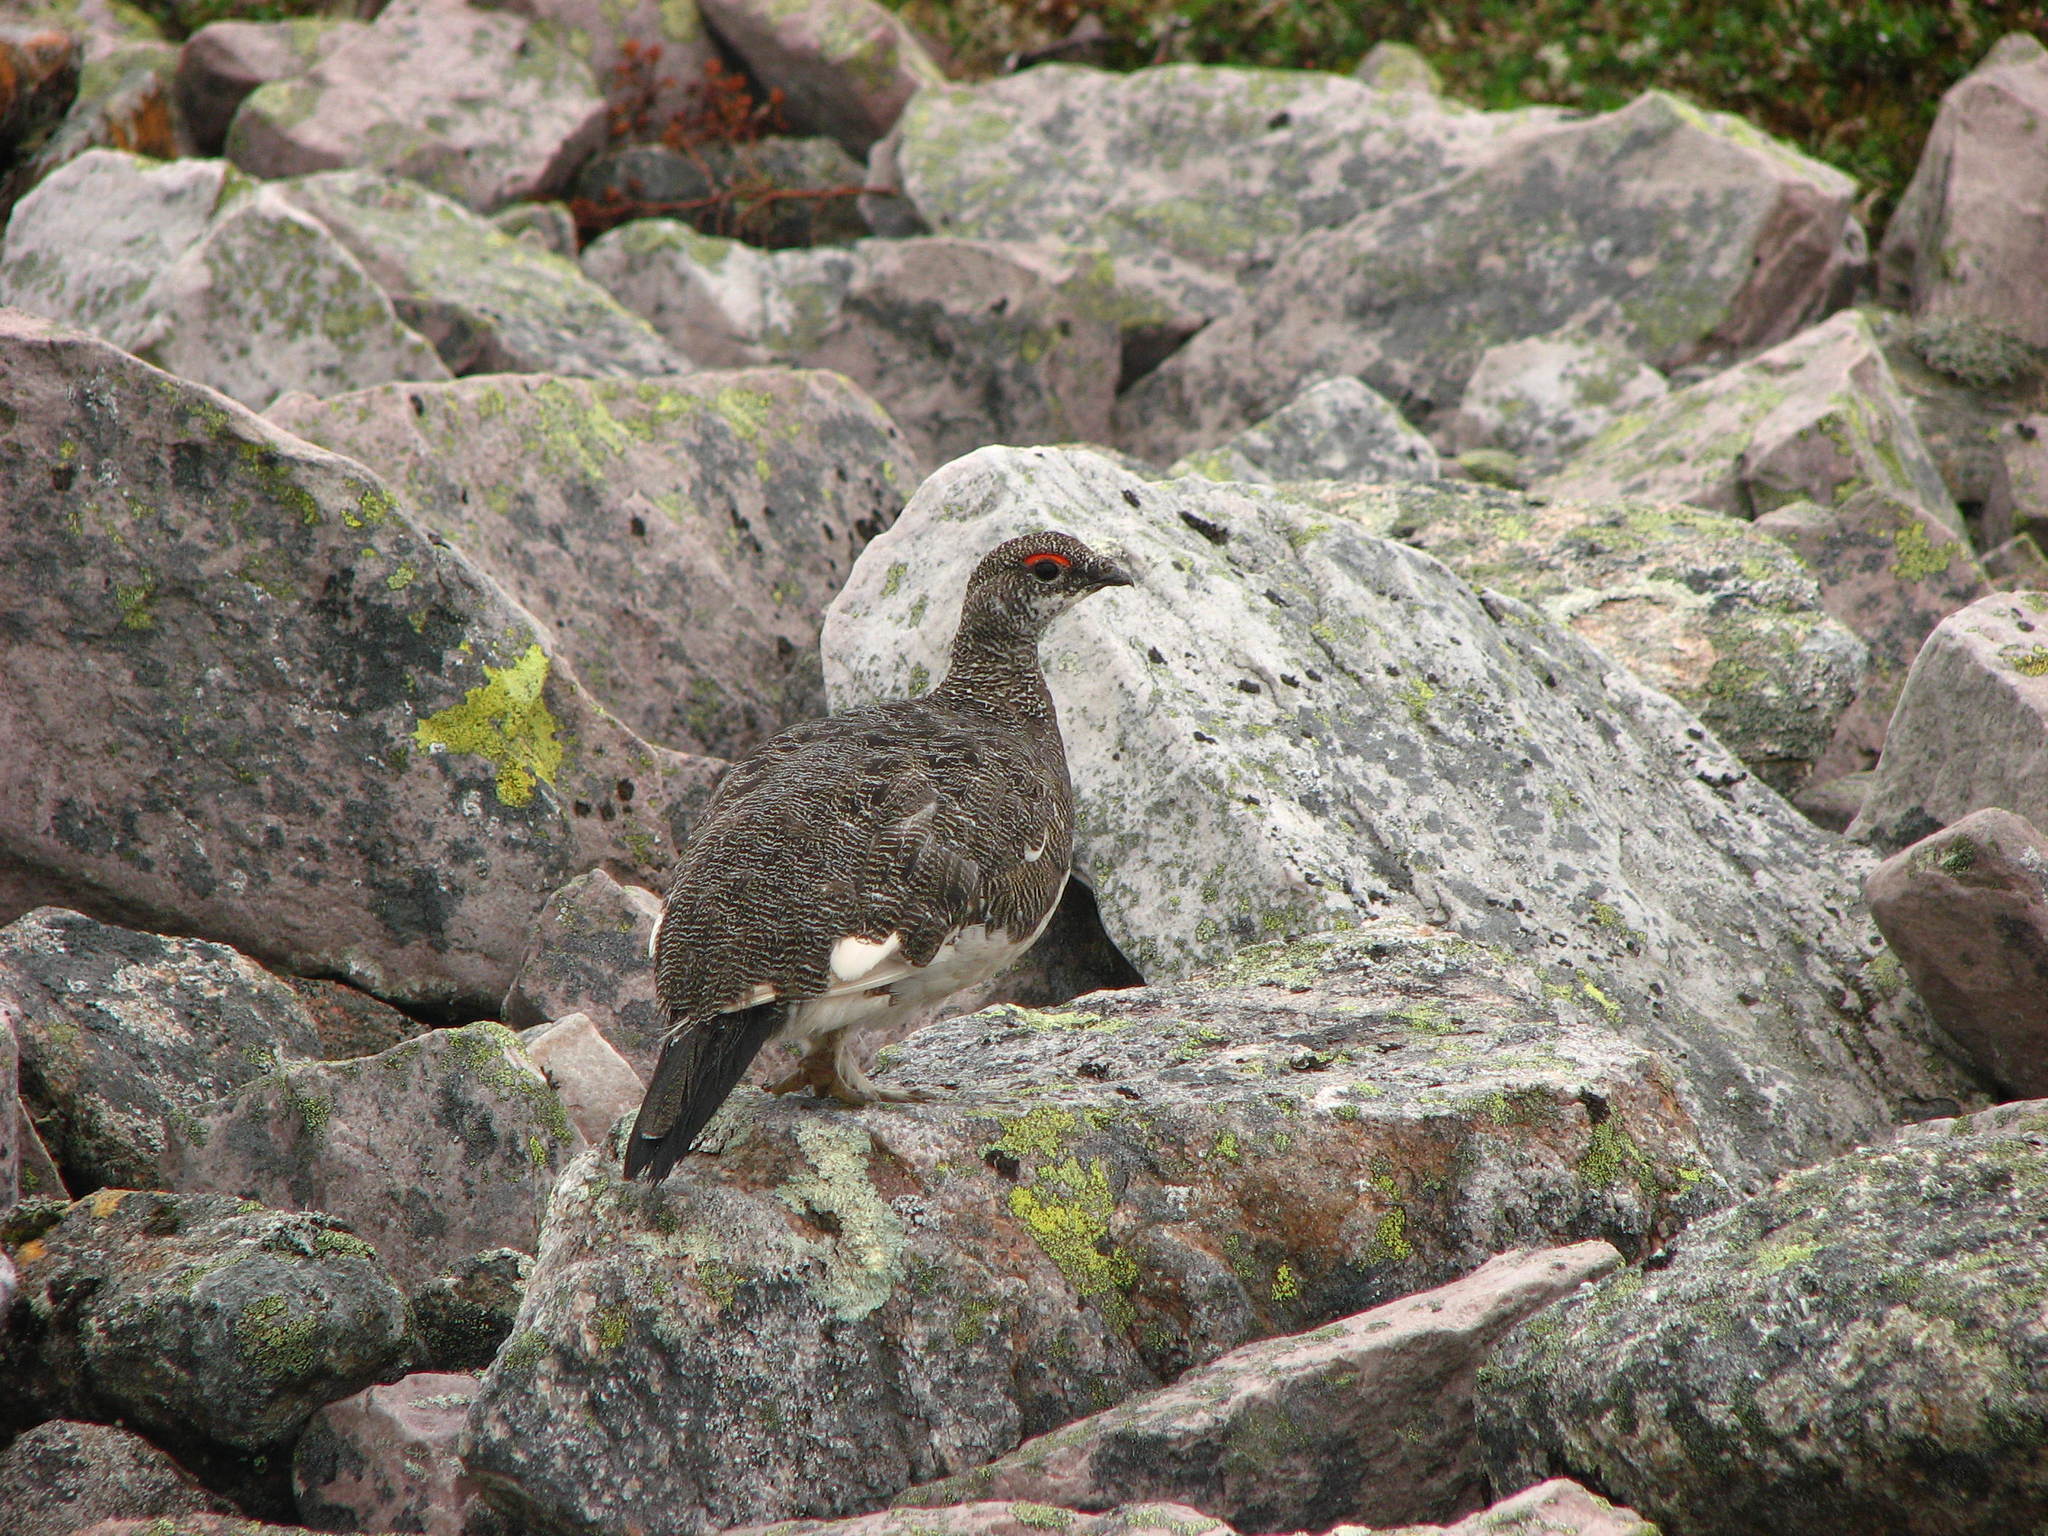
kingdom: Animalia
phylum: Chordata
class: Aves
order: Galliformes
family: Phasianidae
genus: Lagopus
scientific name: Lagopus muta
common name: Rock ptarmigan
